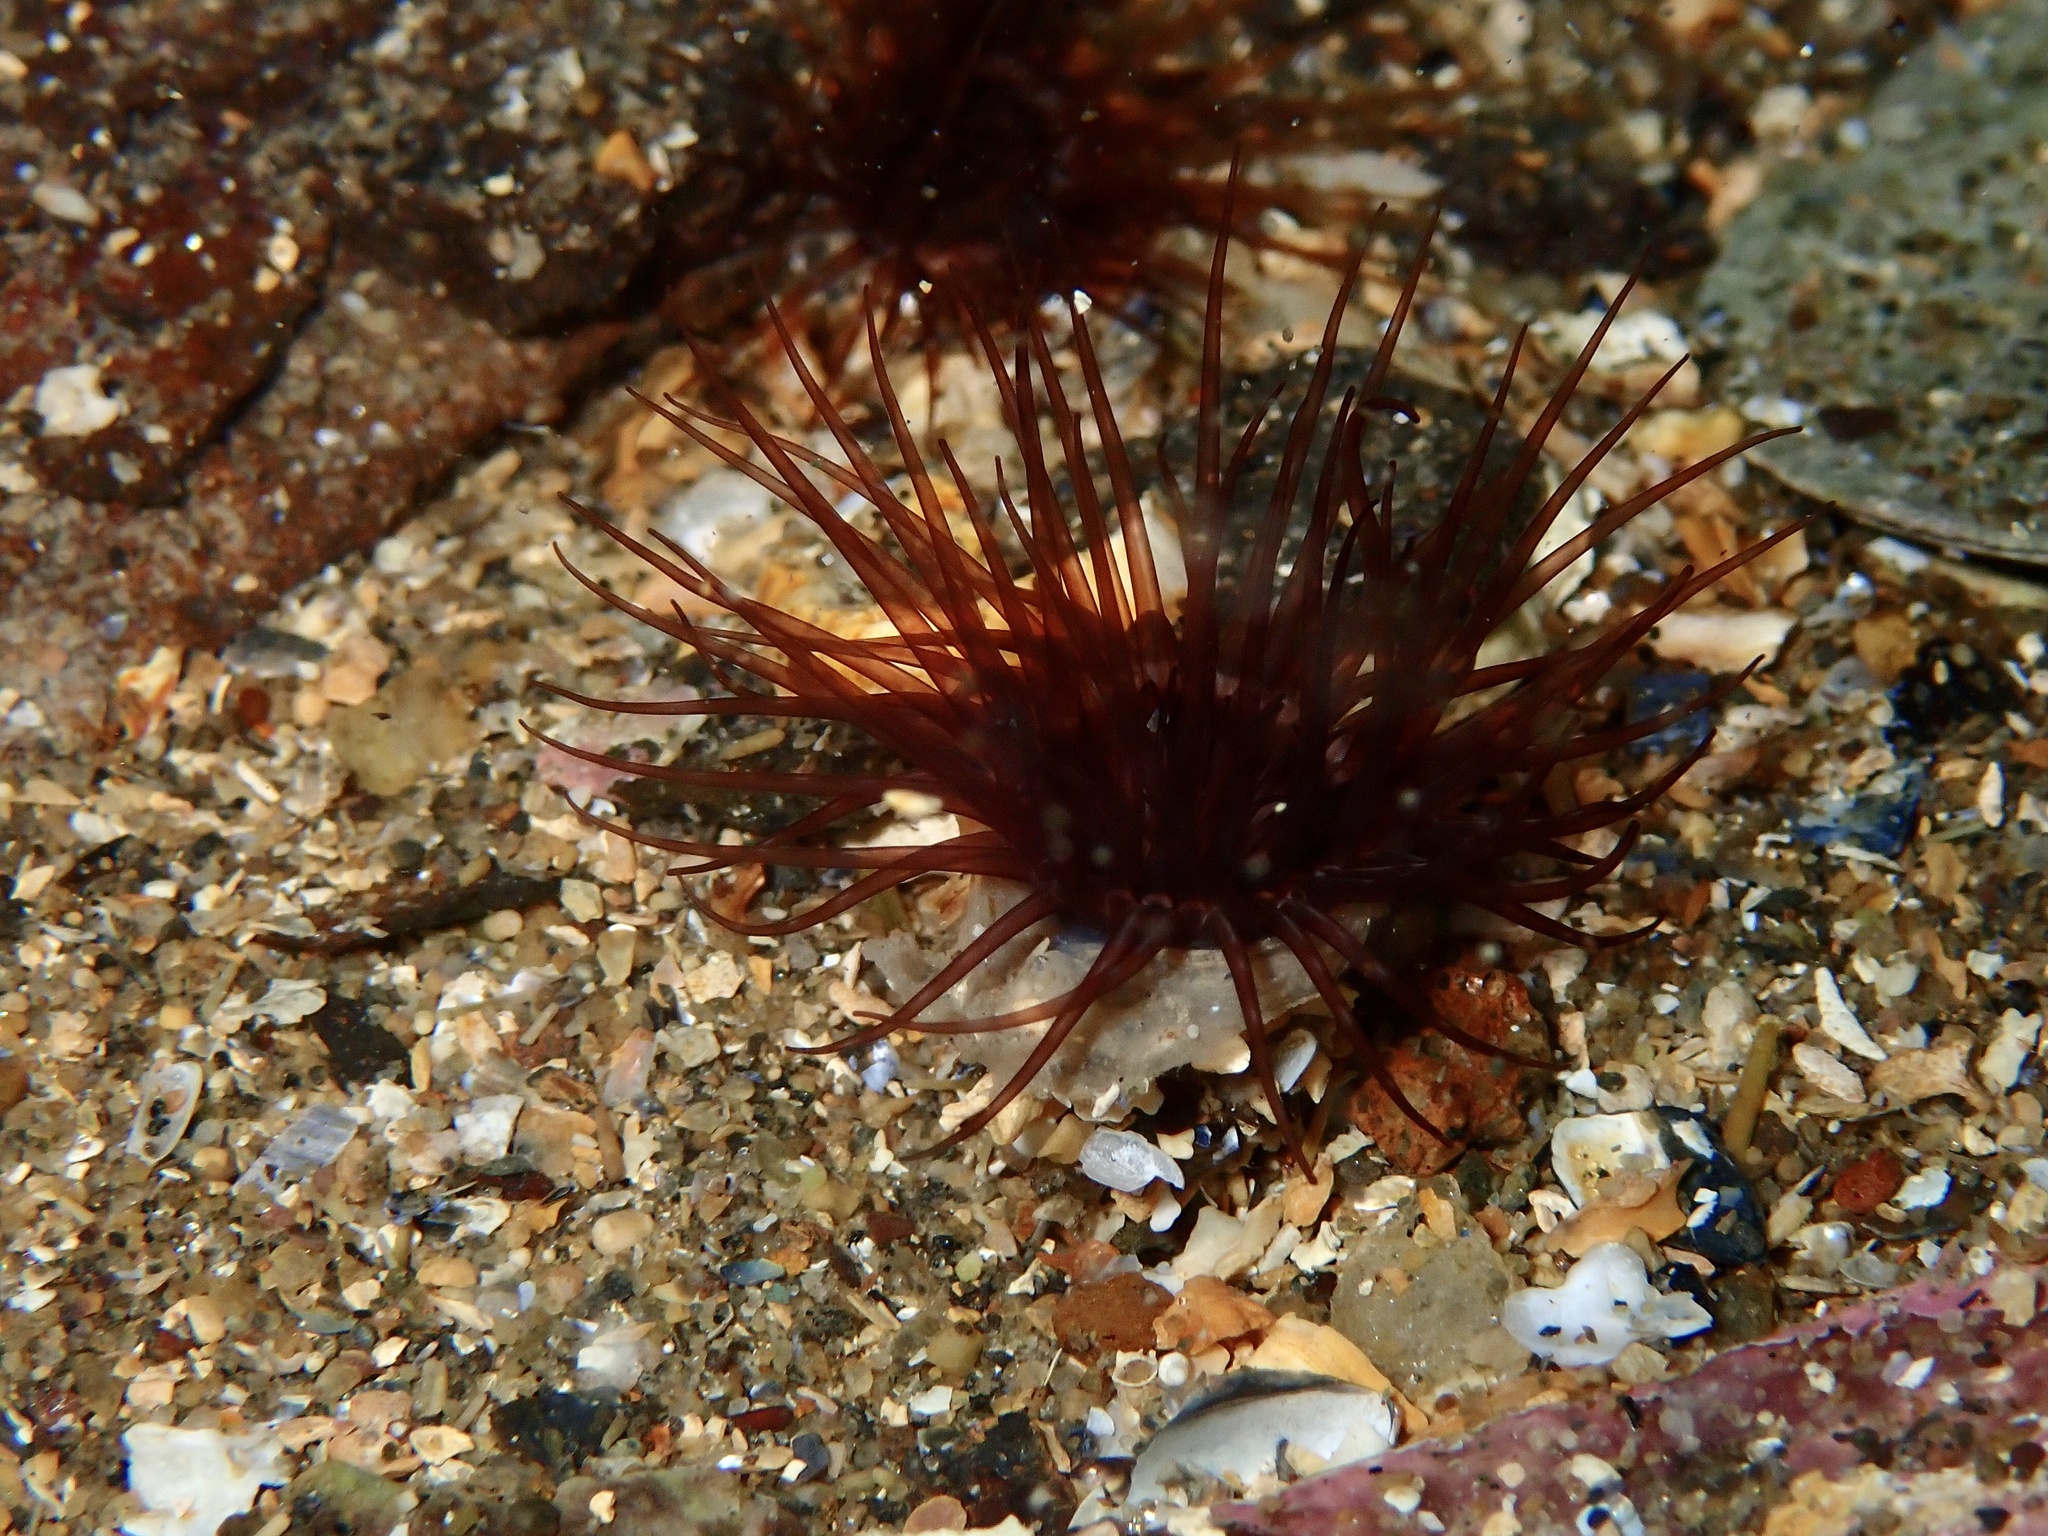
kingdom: Animalia
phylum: Cnidaria
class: Anthozoa
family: Cerianthidae
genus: Synarachnactis
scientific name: Synarachnactis
